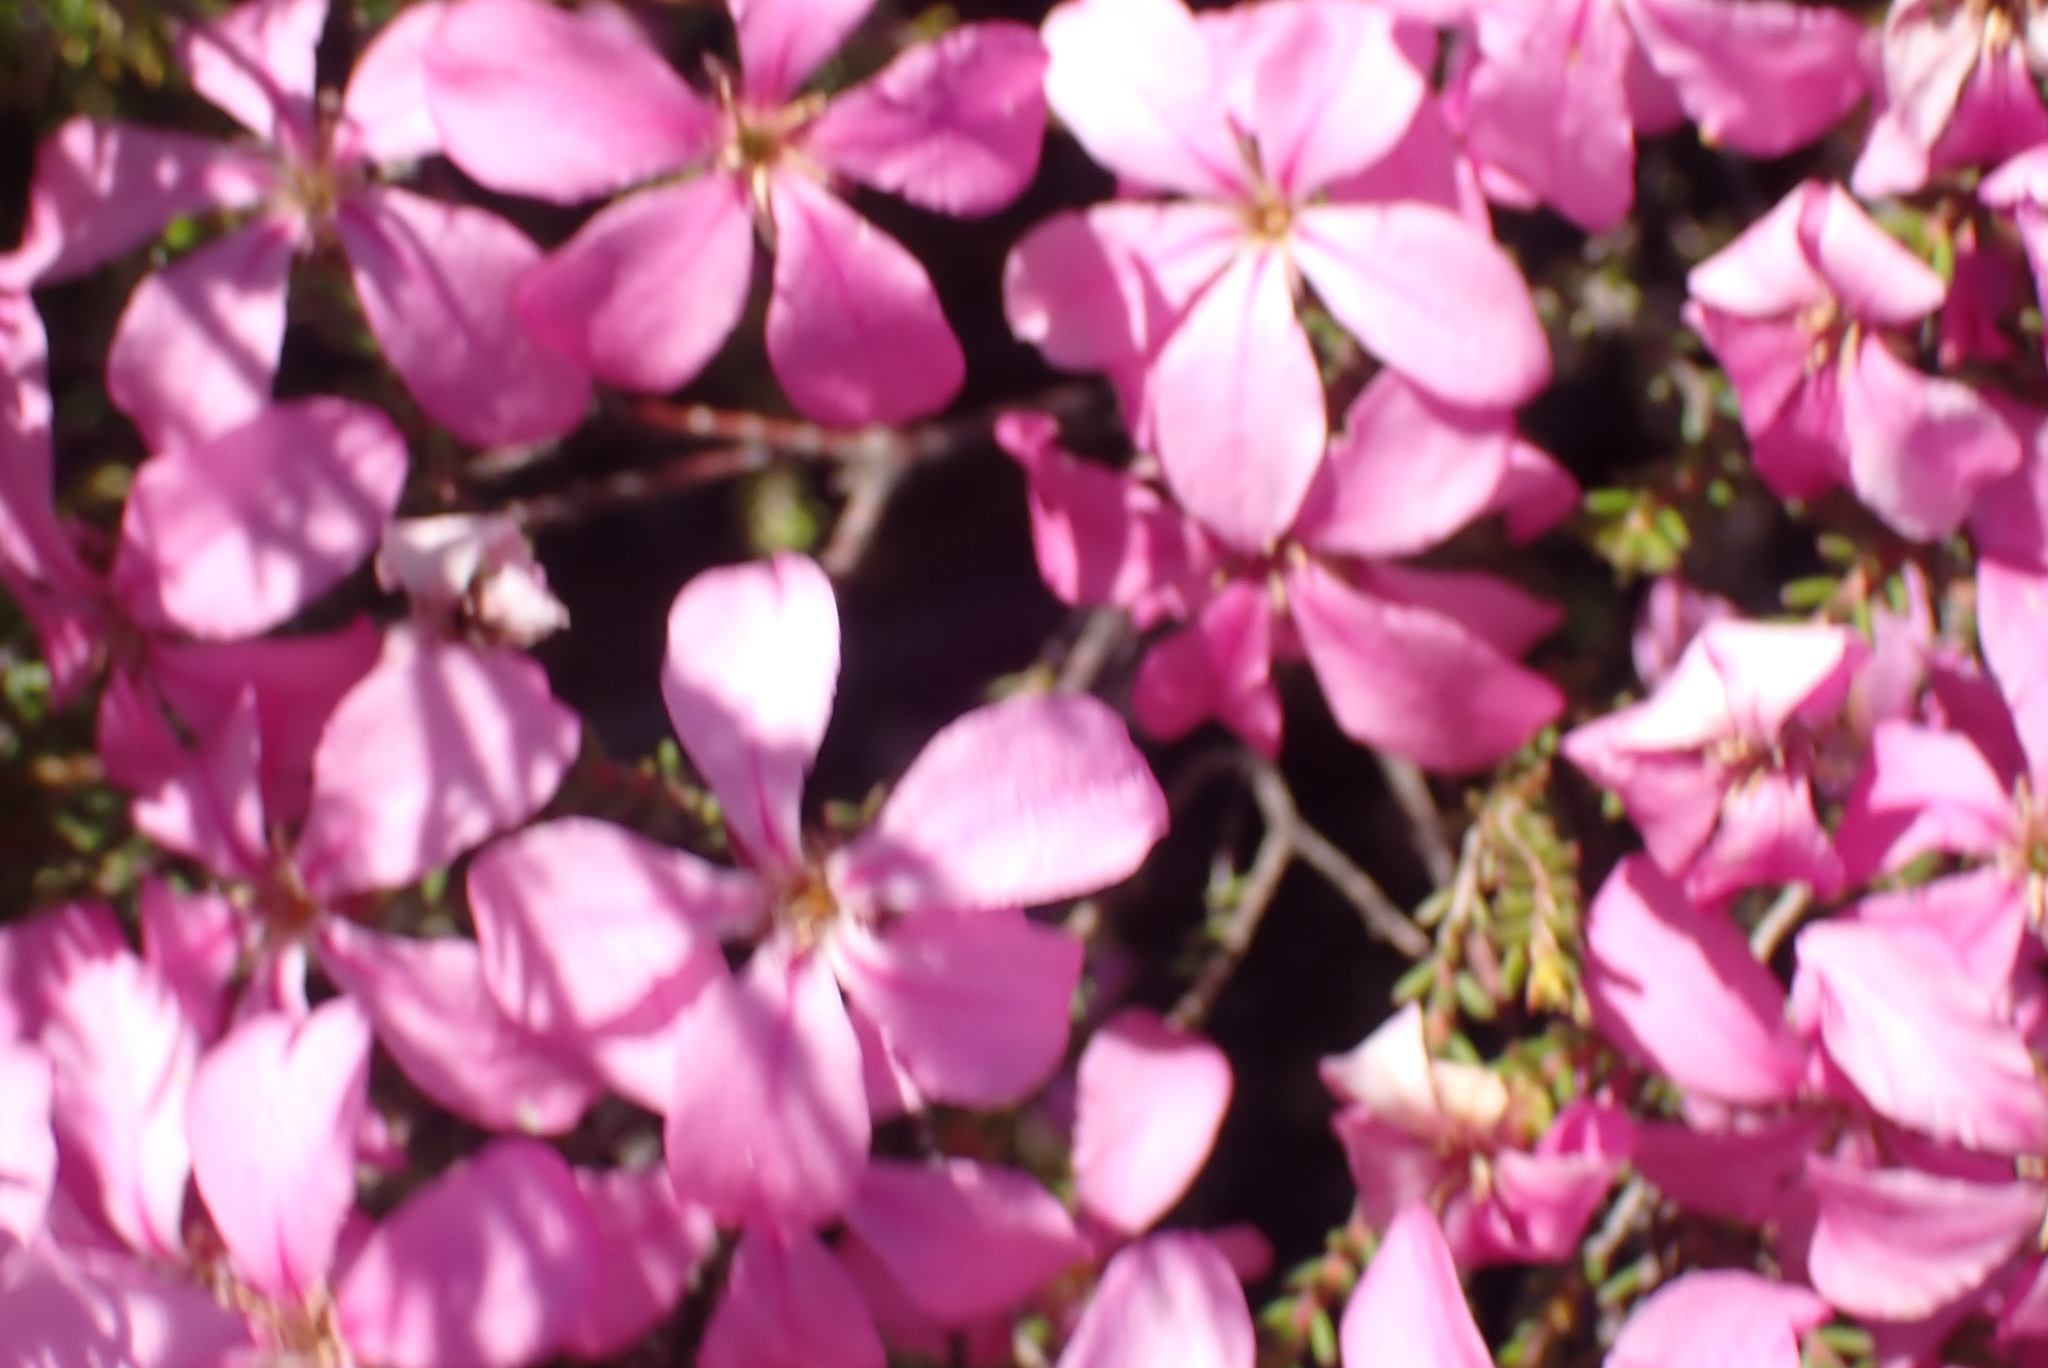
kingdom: Plantae
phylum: Tracheophyta
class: Magnoliopsida
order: Sapindales
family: Rutaceae
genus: Acmadenia
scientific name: Acmadenia sheilae
